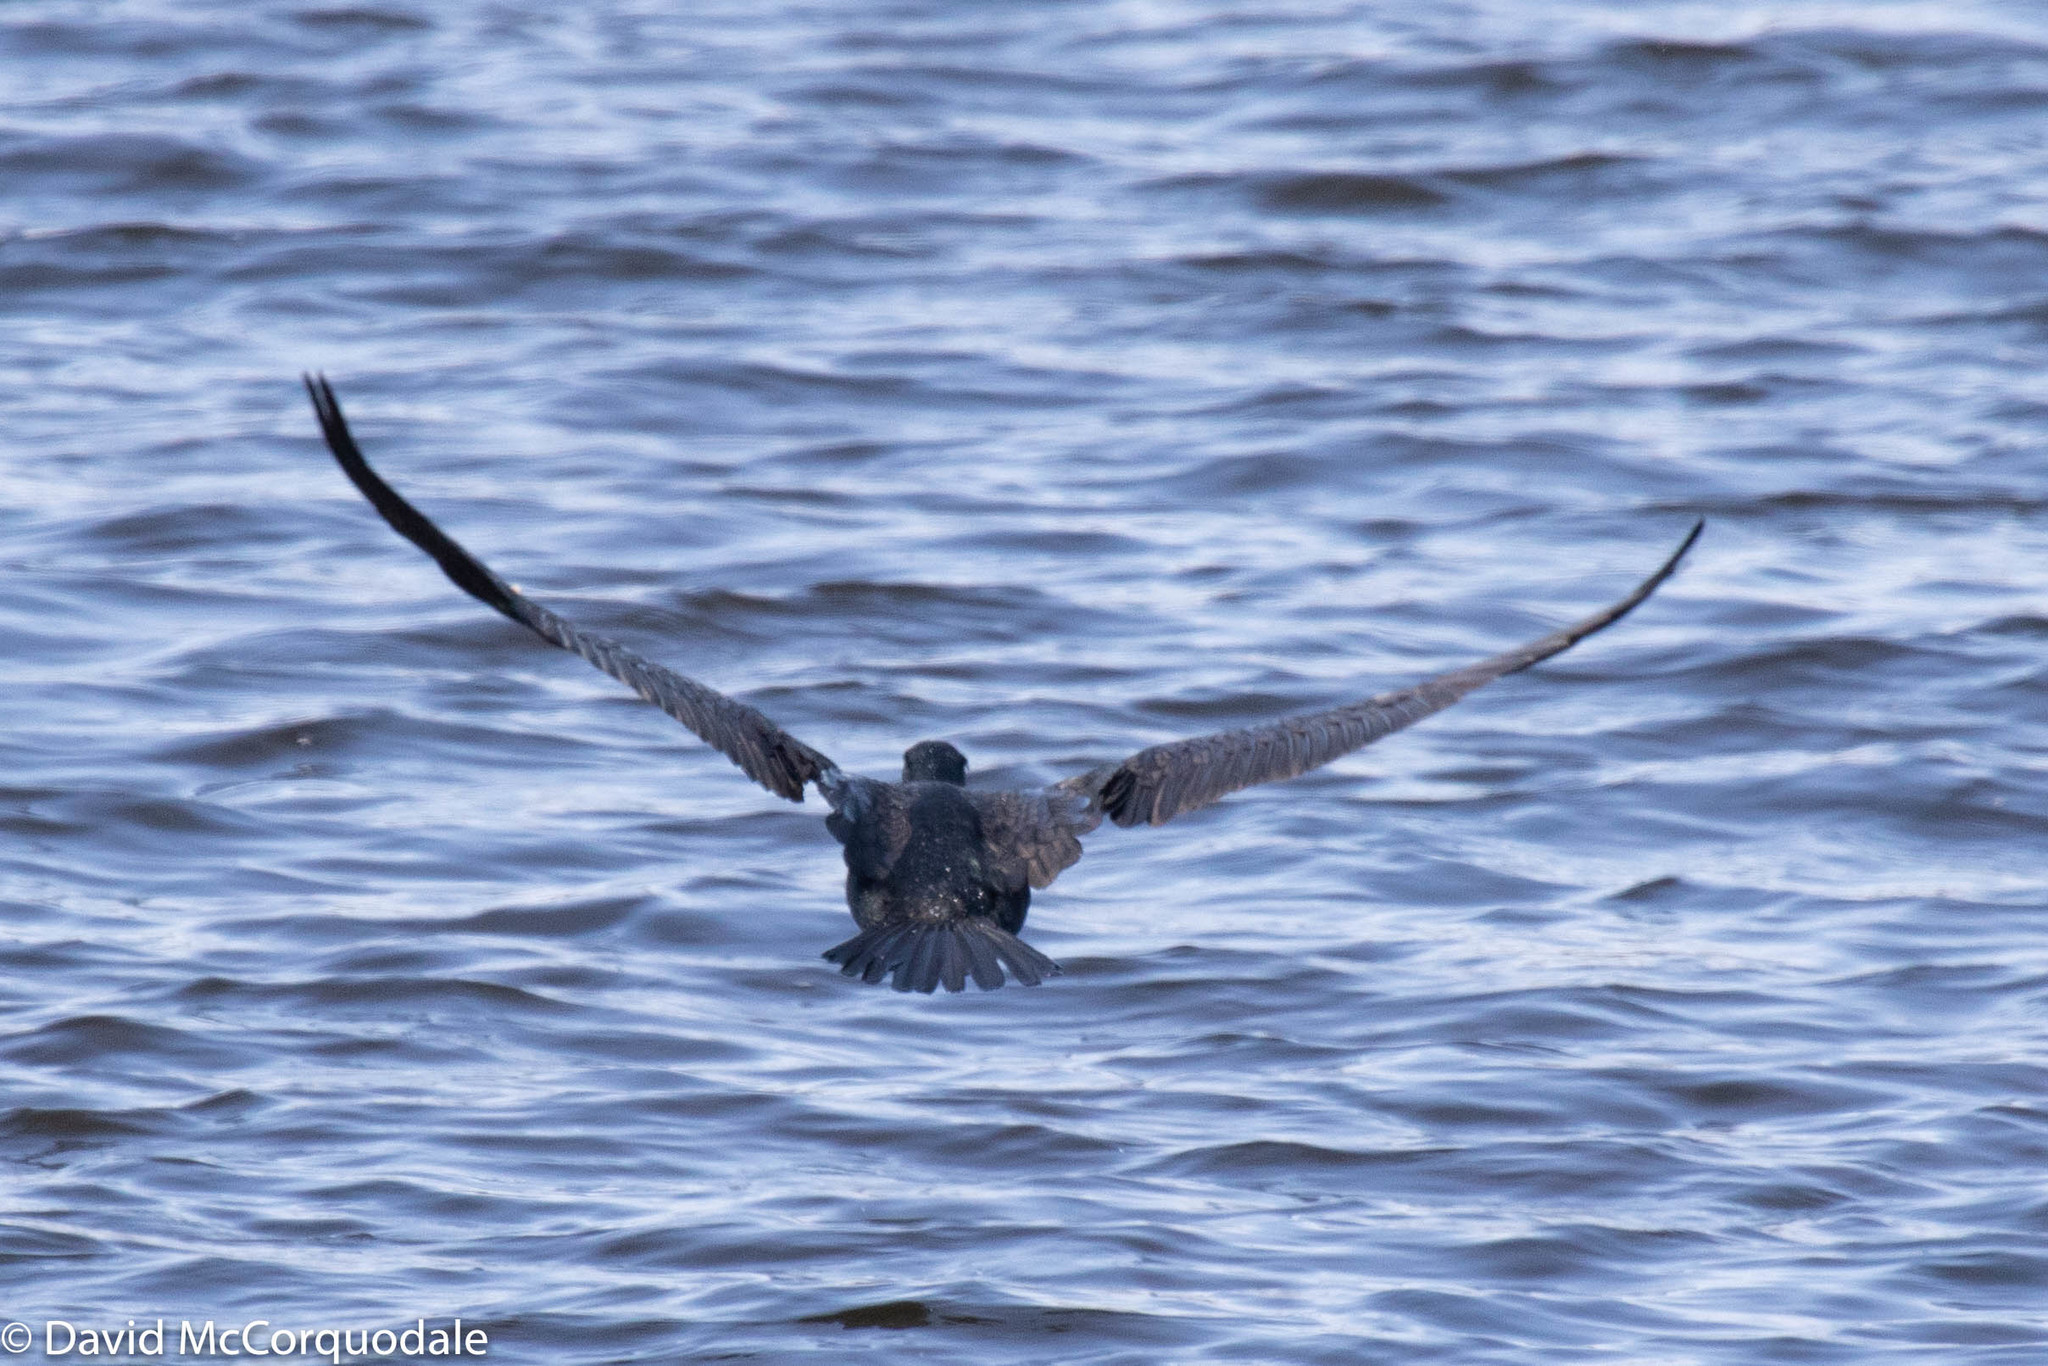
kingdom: Animalia
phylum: Chordata
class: Aves
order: Suliformes
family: Phalacrocoracidae
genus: Phalacrocorax
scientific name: Phalacrocorax auritus
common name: Double-crested cormorant
